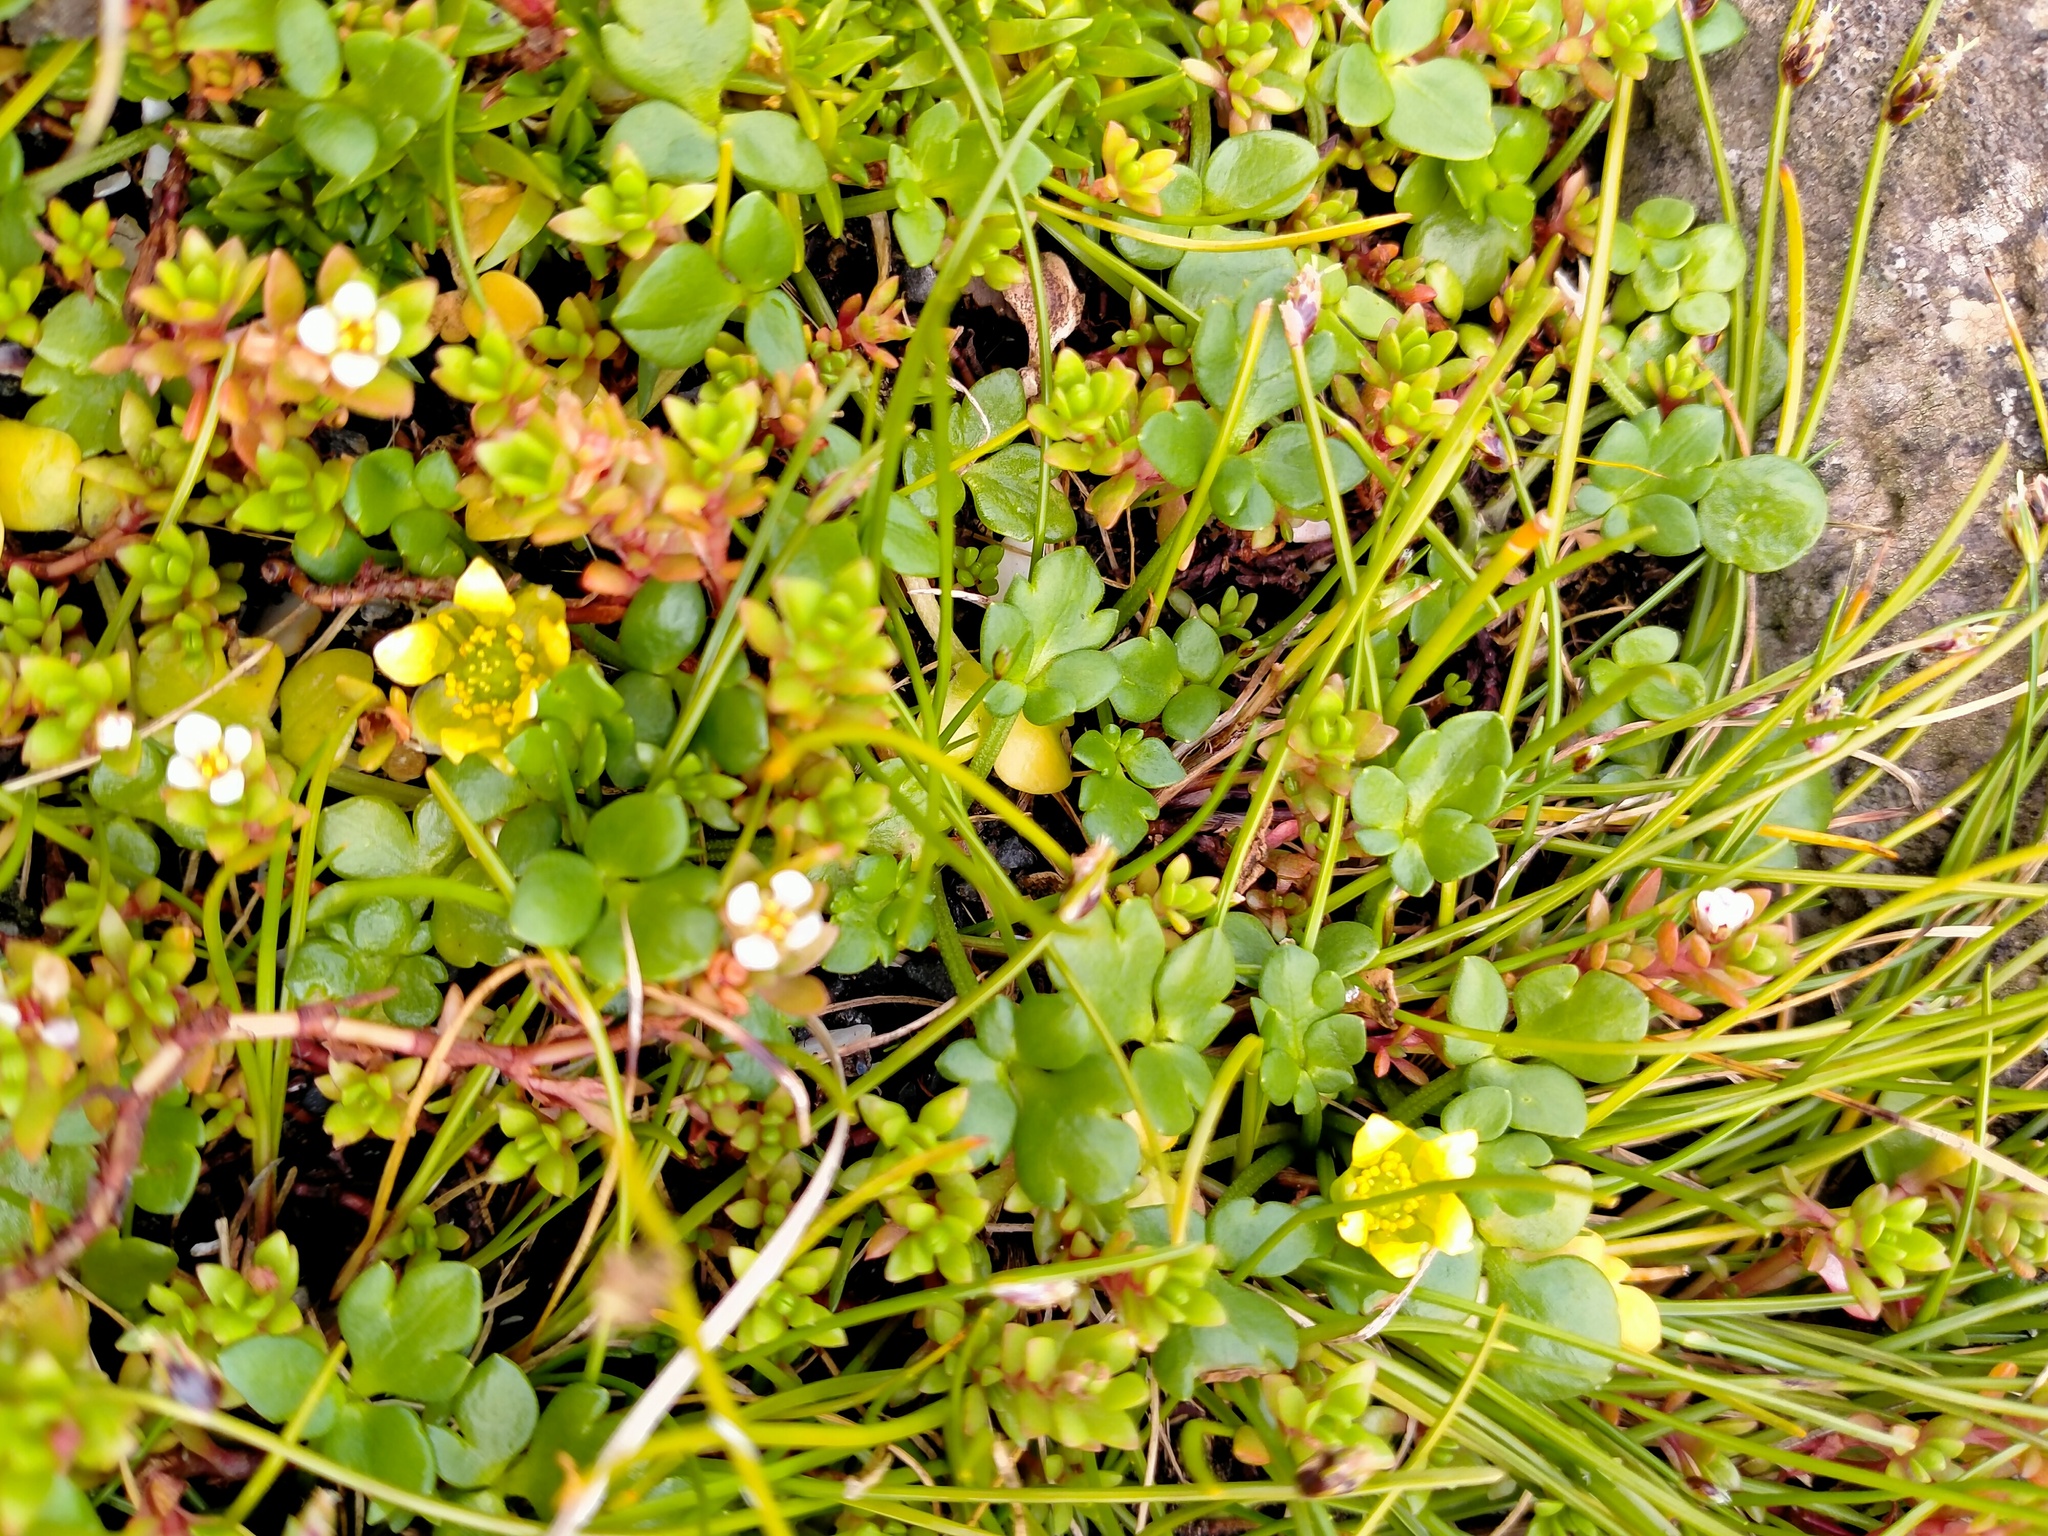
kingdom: Plantae
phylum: Tracheophyta
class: Magnoliopsida
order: Ranunculales
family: Ranunculaceae
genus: Ranunculus
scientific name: Ranunculus acaulis
